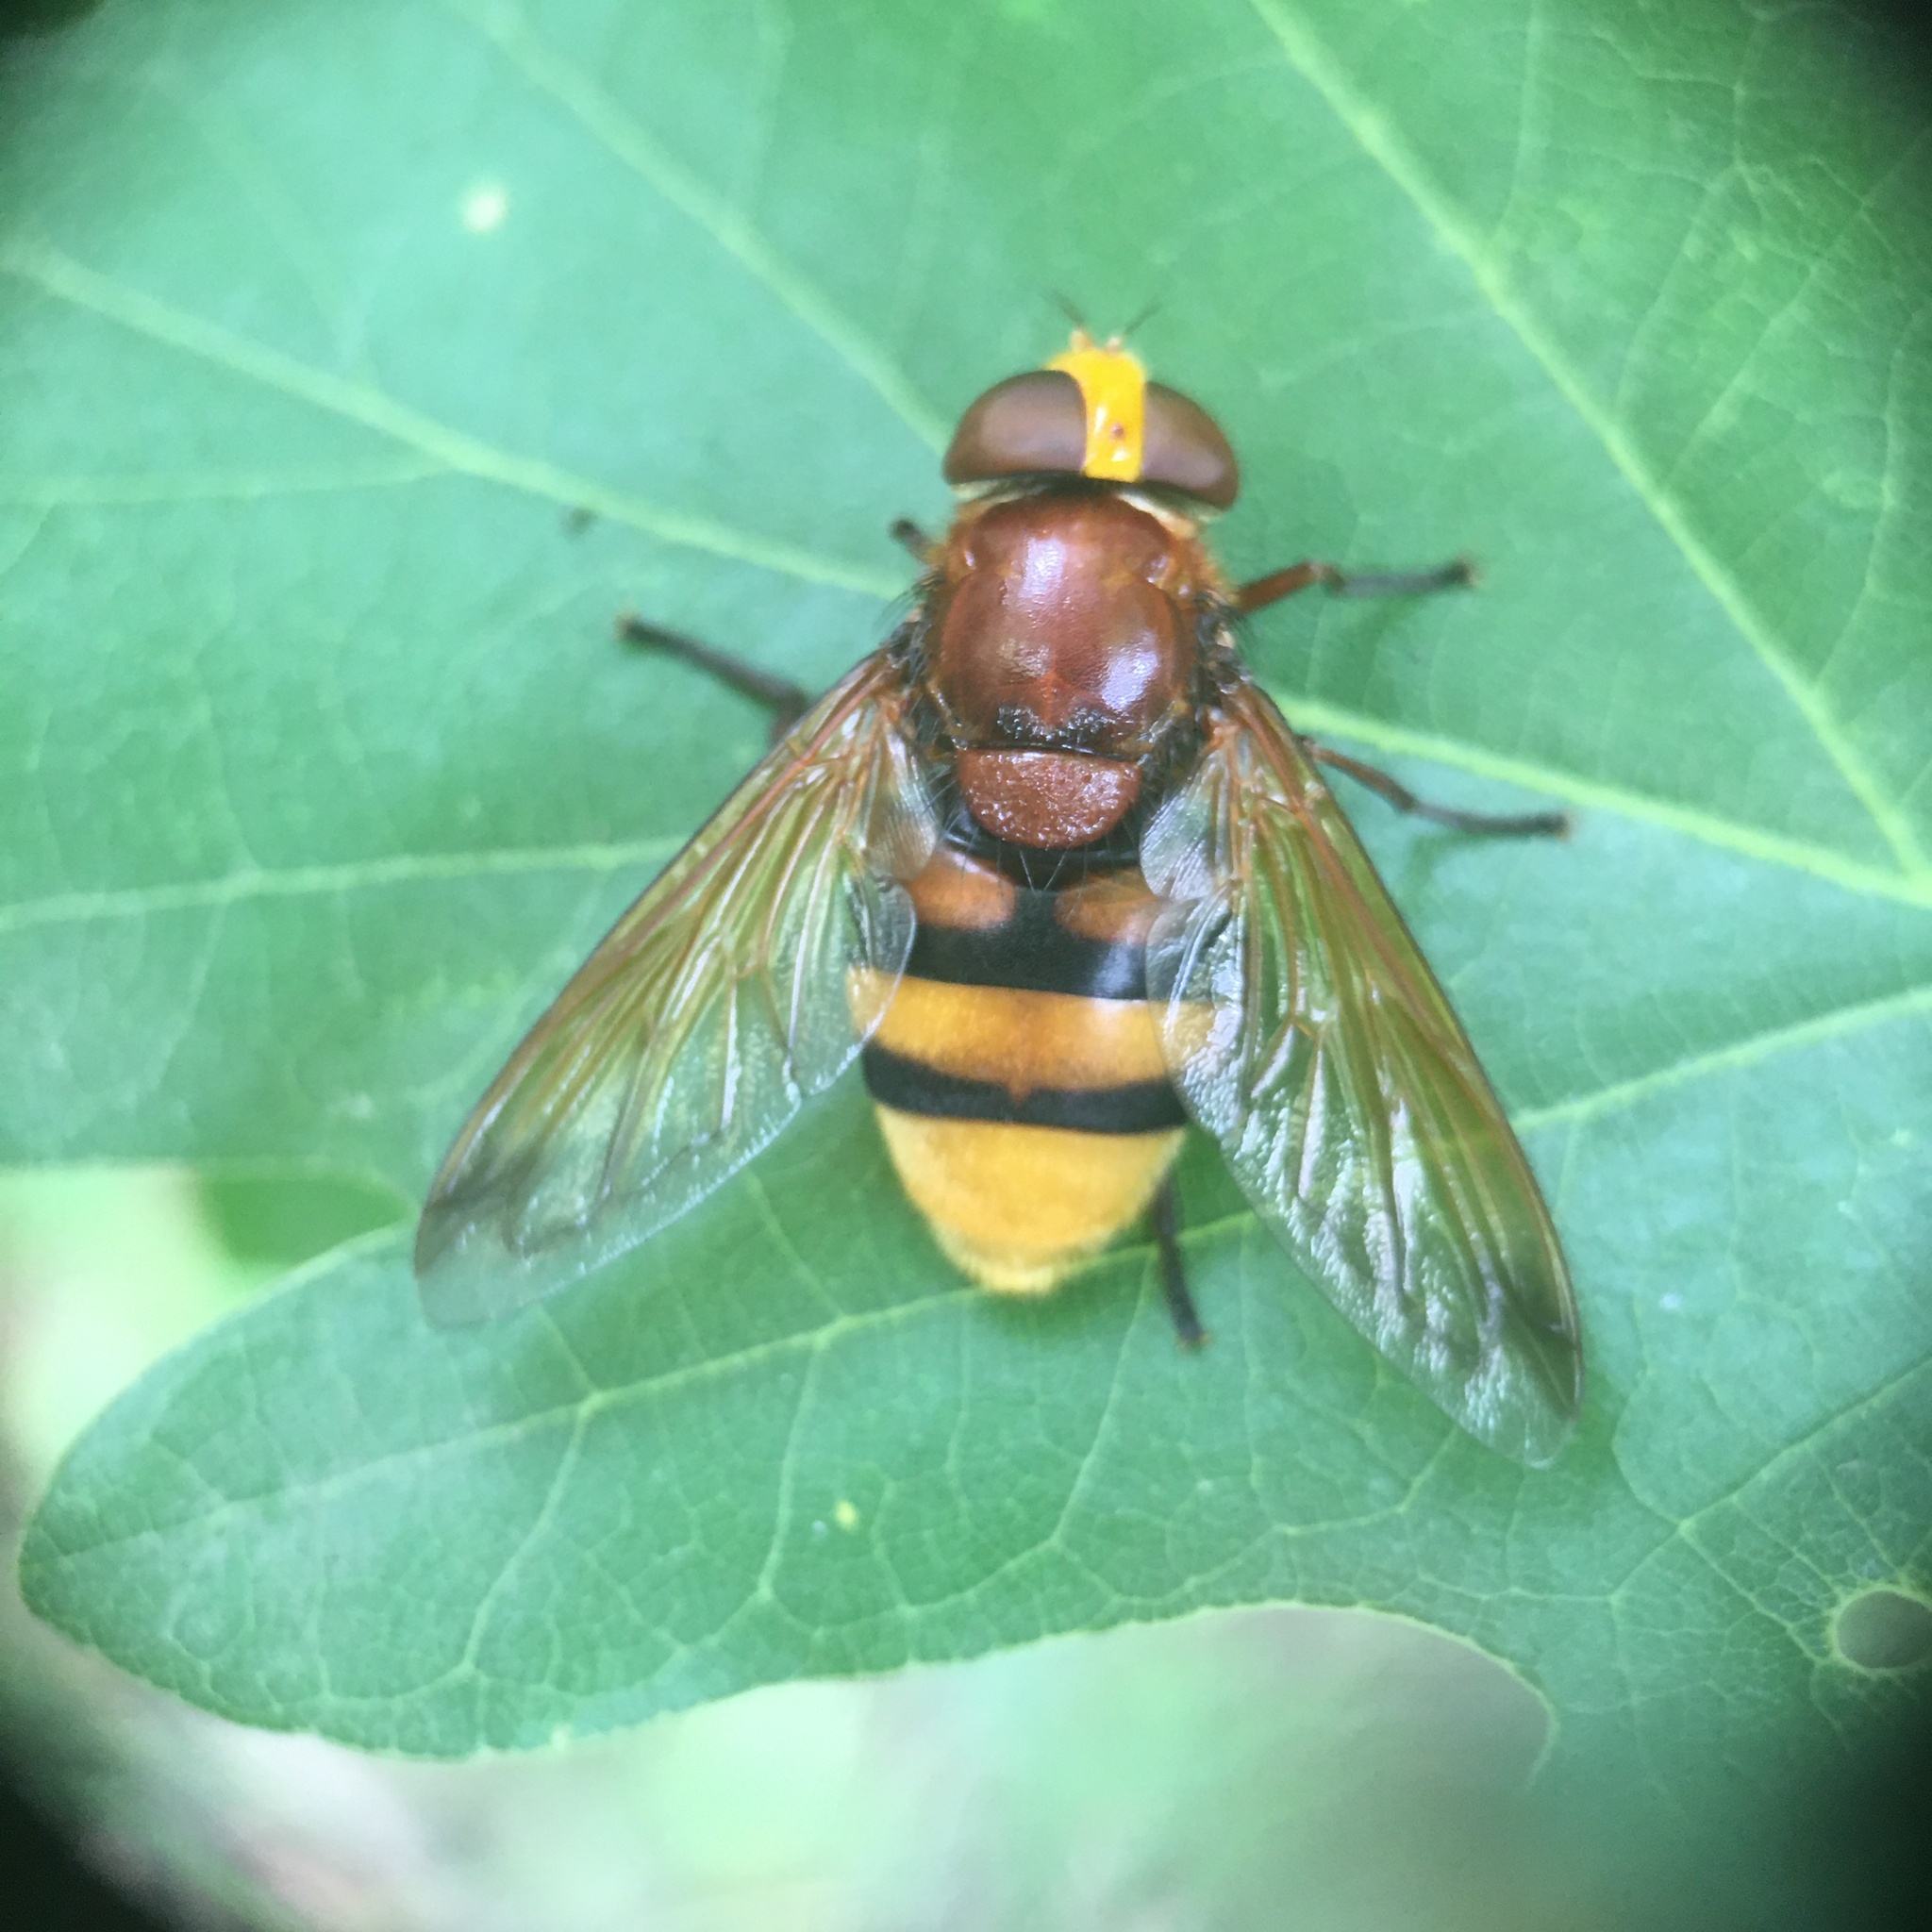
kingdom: Animalia
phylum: Arthropoda
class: Insecta
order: Diptera
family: Syrphidae
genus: Volucella
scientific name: Volucella zonaria
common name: Hornet hoverfly
